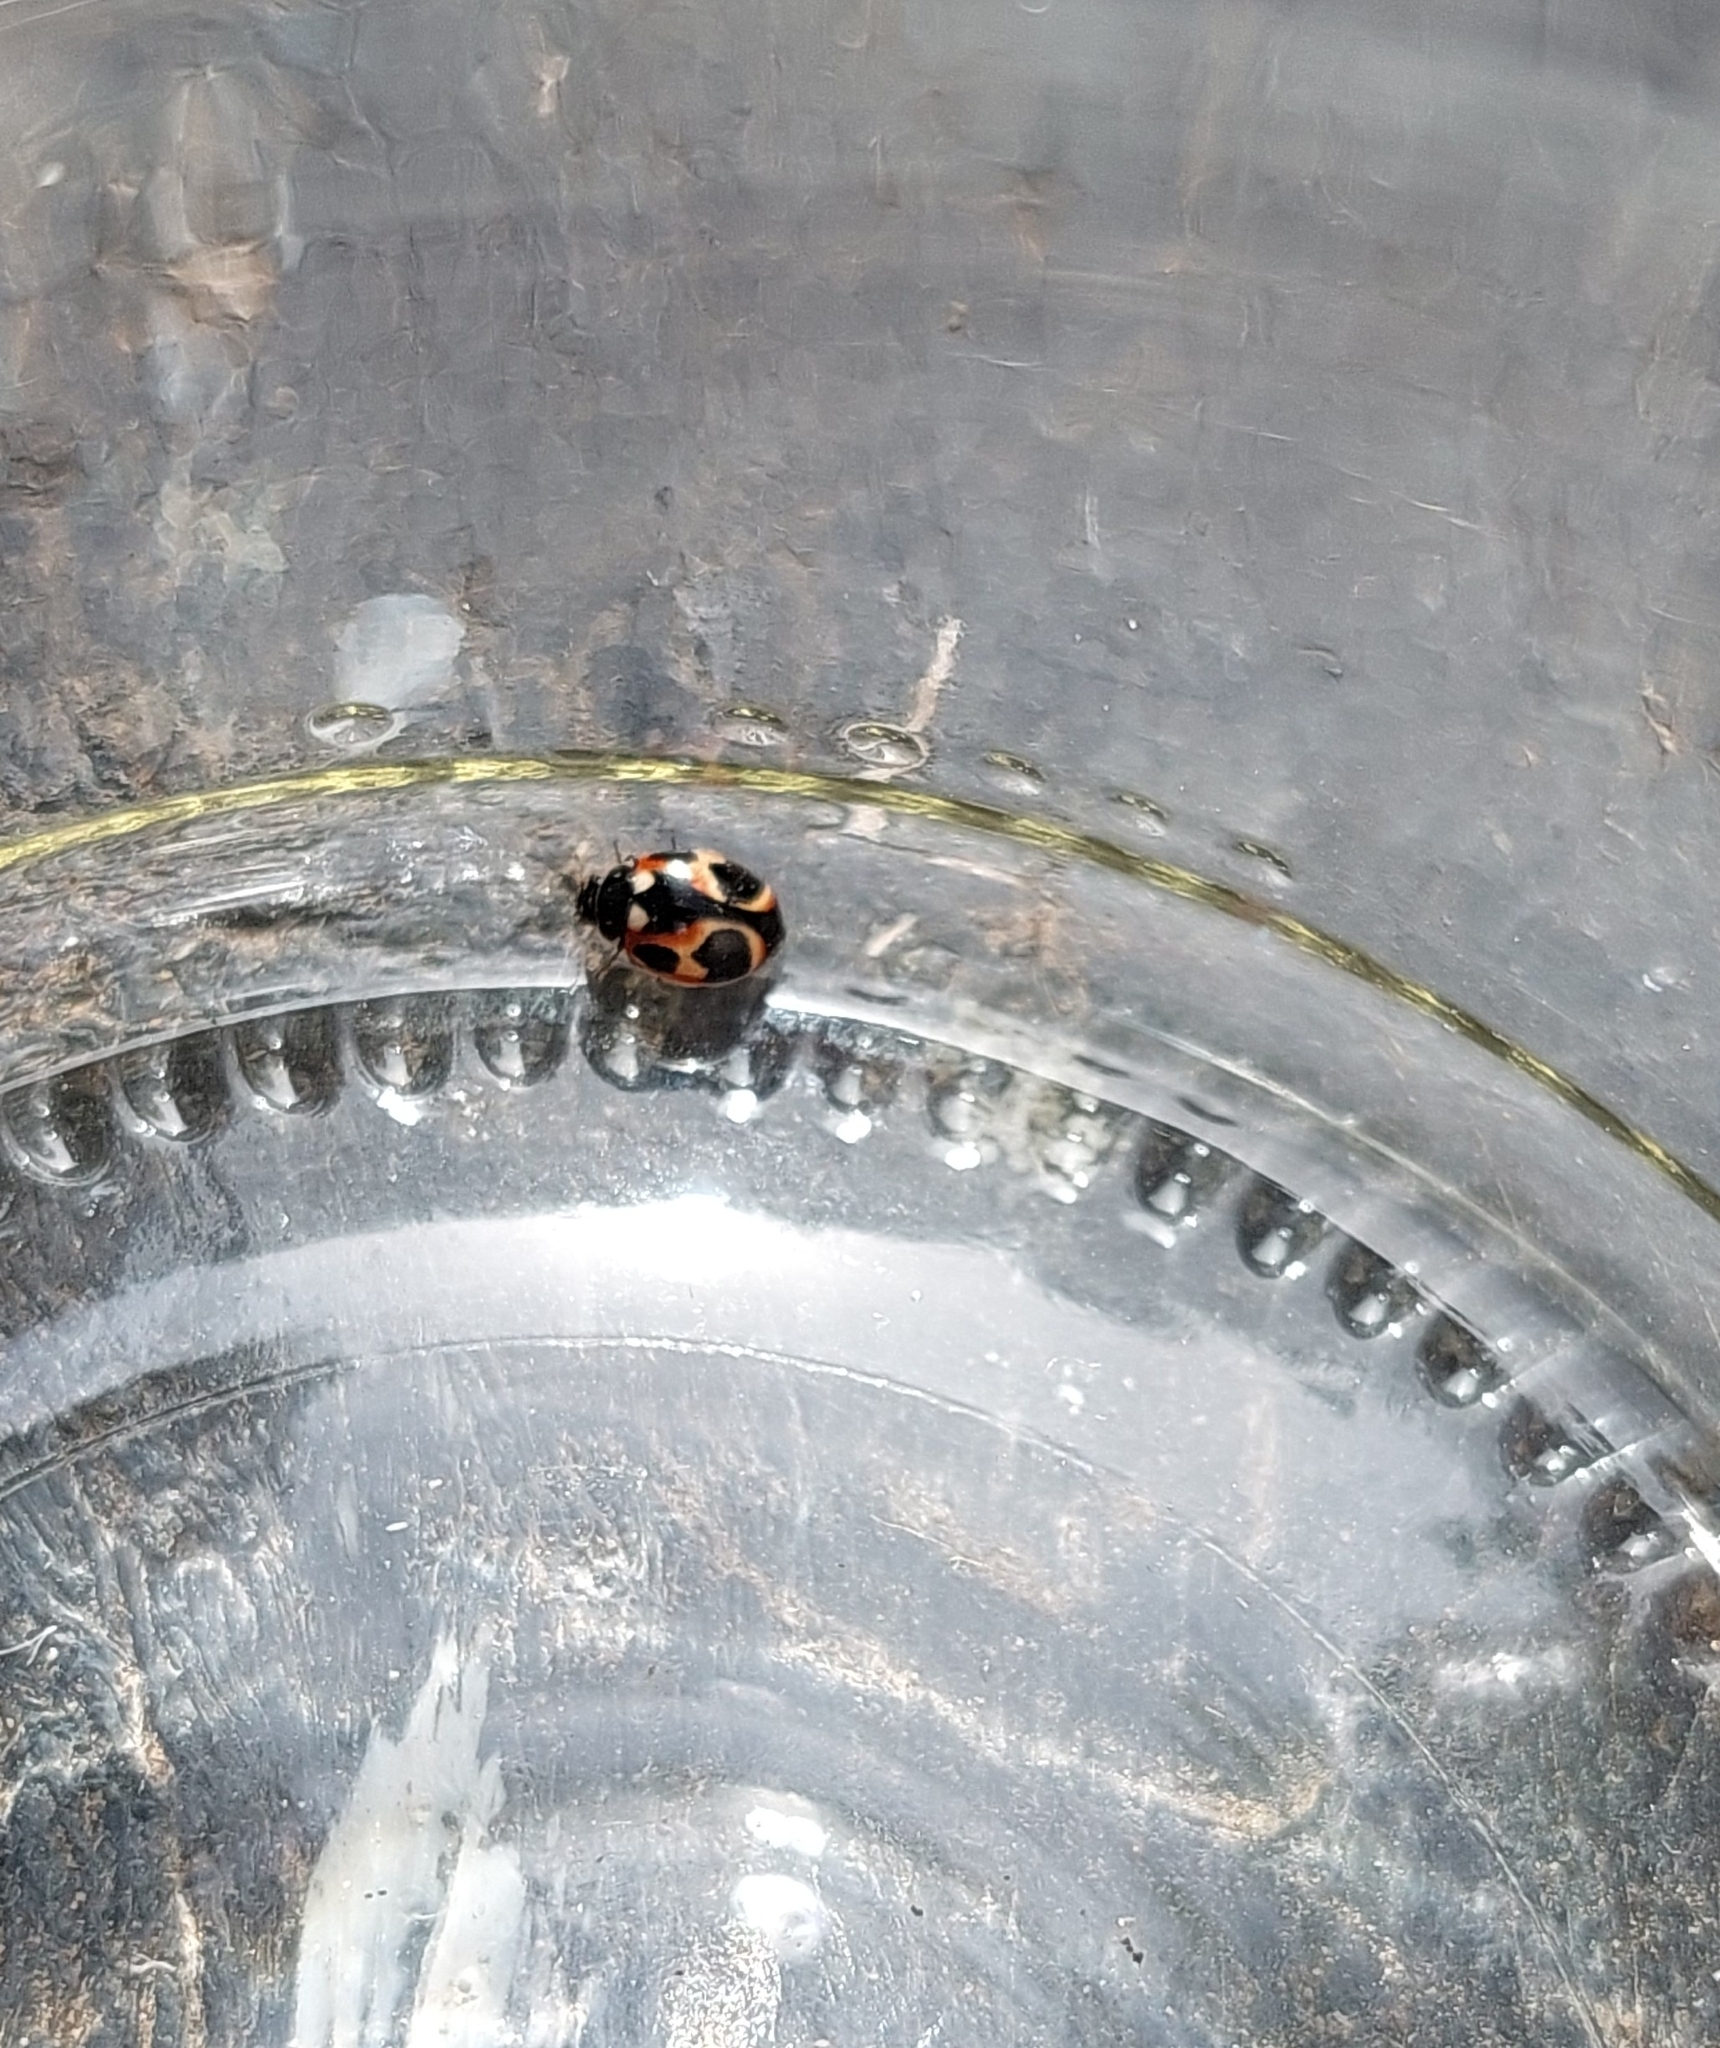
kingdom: Animalia
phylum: Arthropoda
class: Insecta
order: Coleoptera
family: Coccinellidae
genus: Cycloneda
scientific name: Cycloneda ancoralis
